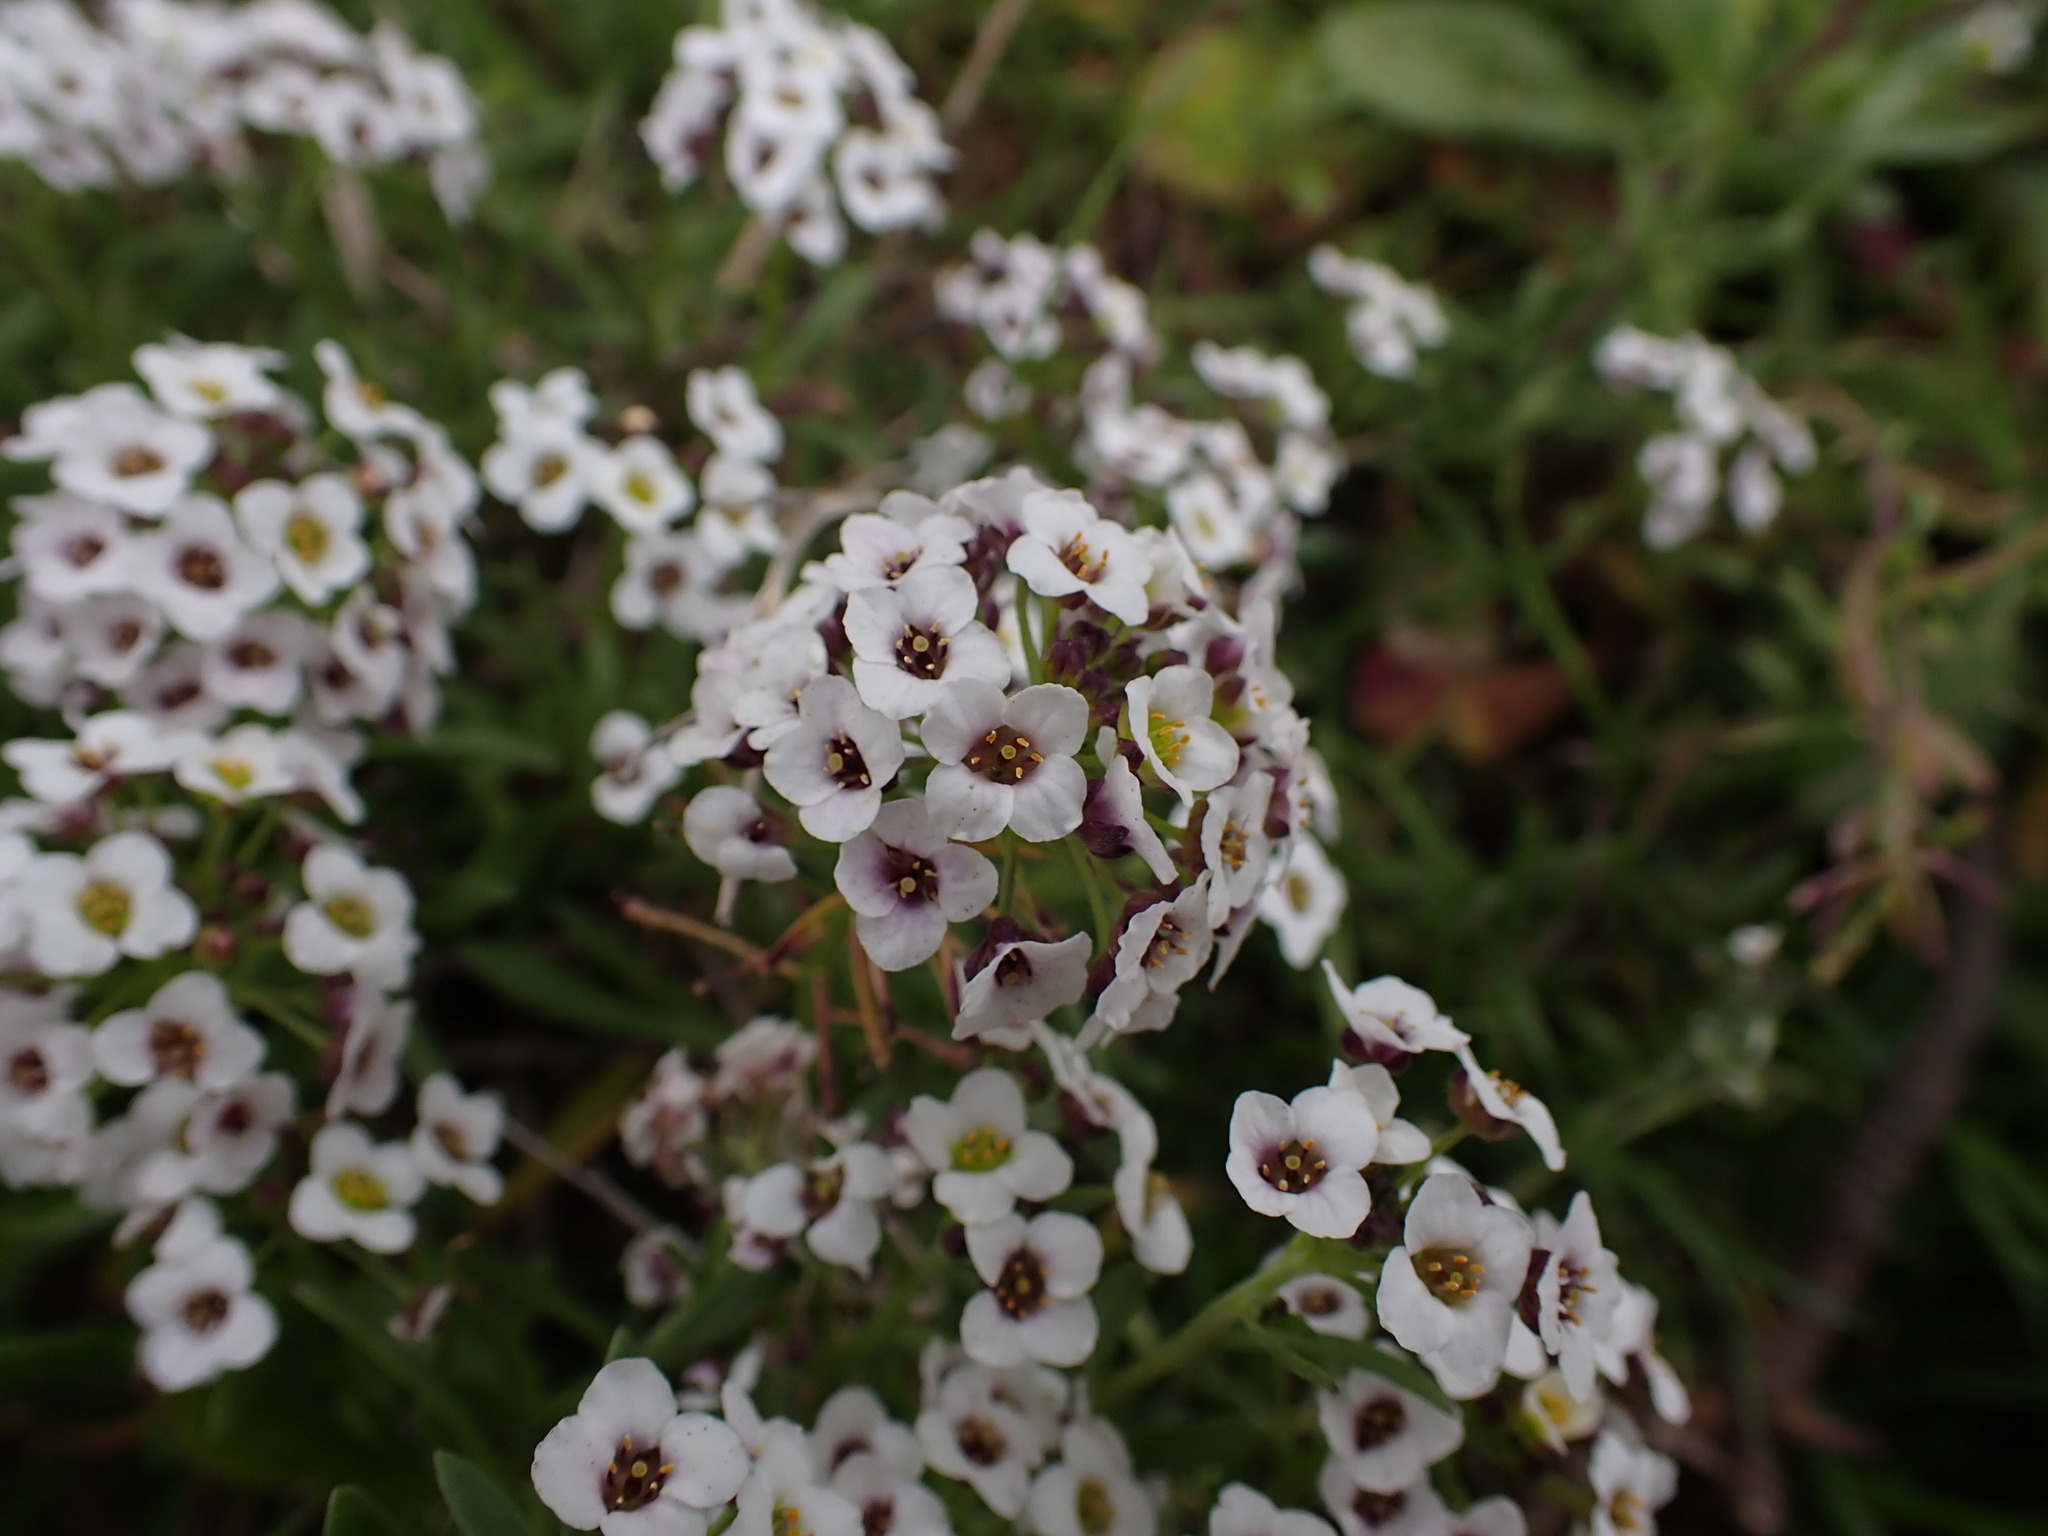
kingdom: Plantae
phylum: Tracheophyta
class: Magnoliopsida
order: Brassicales
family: Brassicaceae
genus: Lobularia
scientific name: Lobularia maritima
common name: Sweet alison
